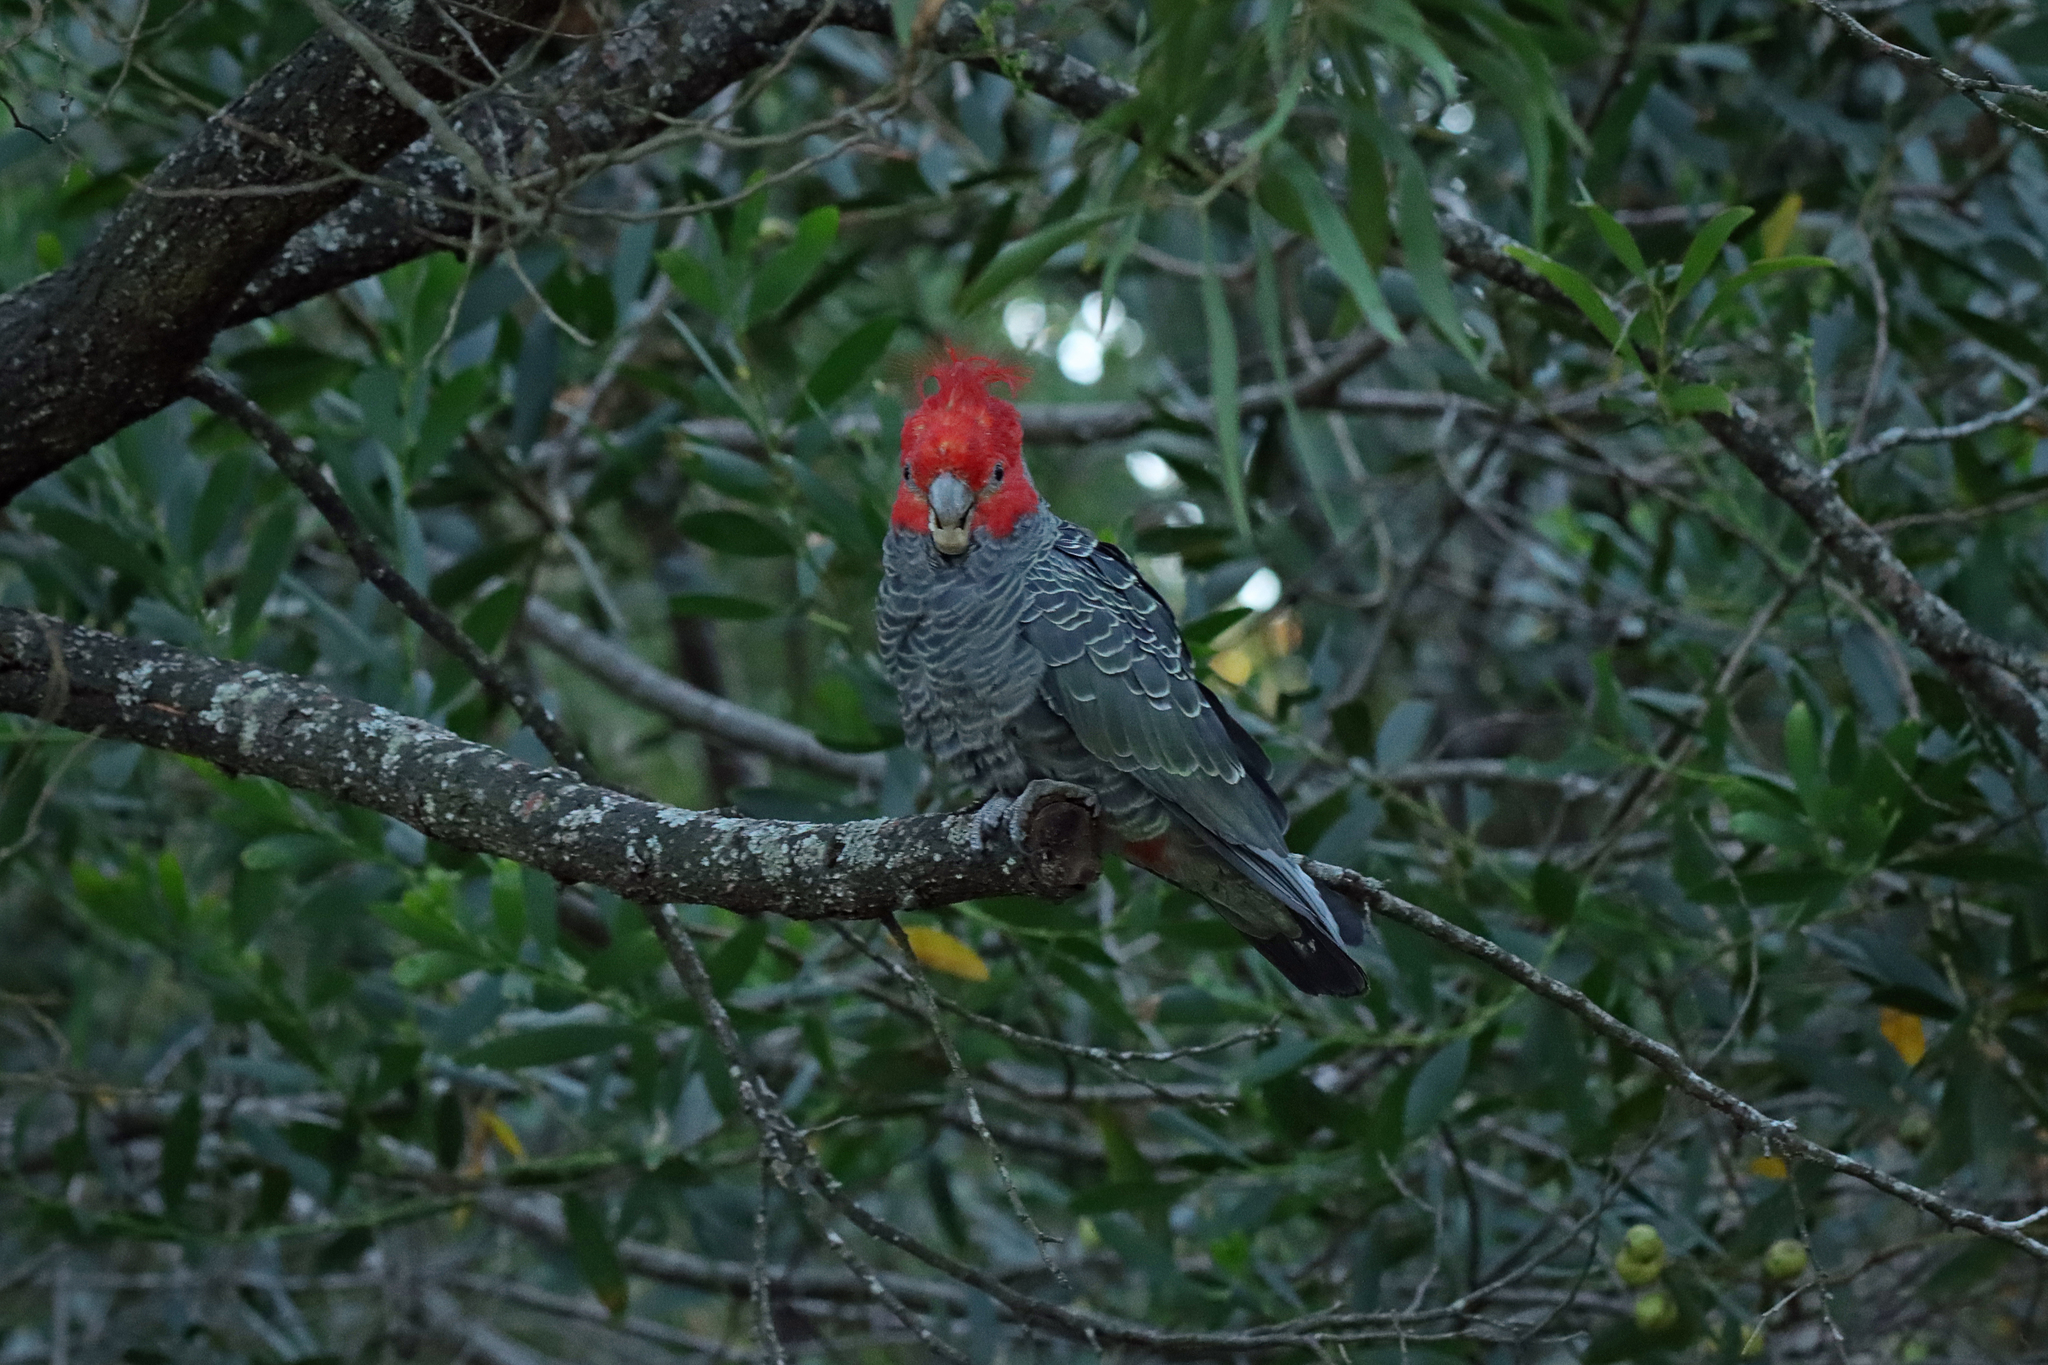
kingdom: Animalia
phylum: Chordata
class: Aves
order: Psittaciformes
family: Psittacidae
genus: Callocephalon
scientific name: Callocephalon fimbriatum
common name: Gang-gang cockatoo
